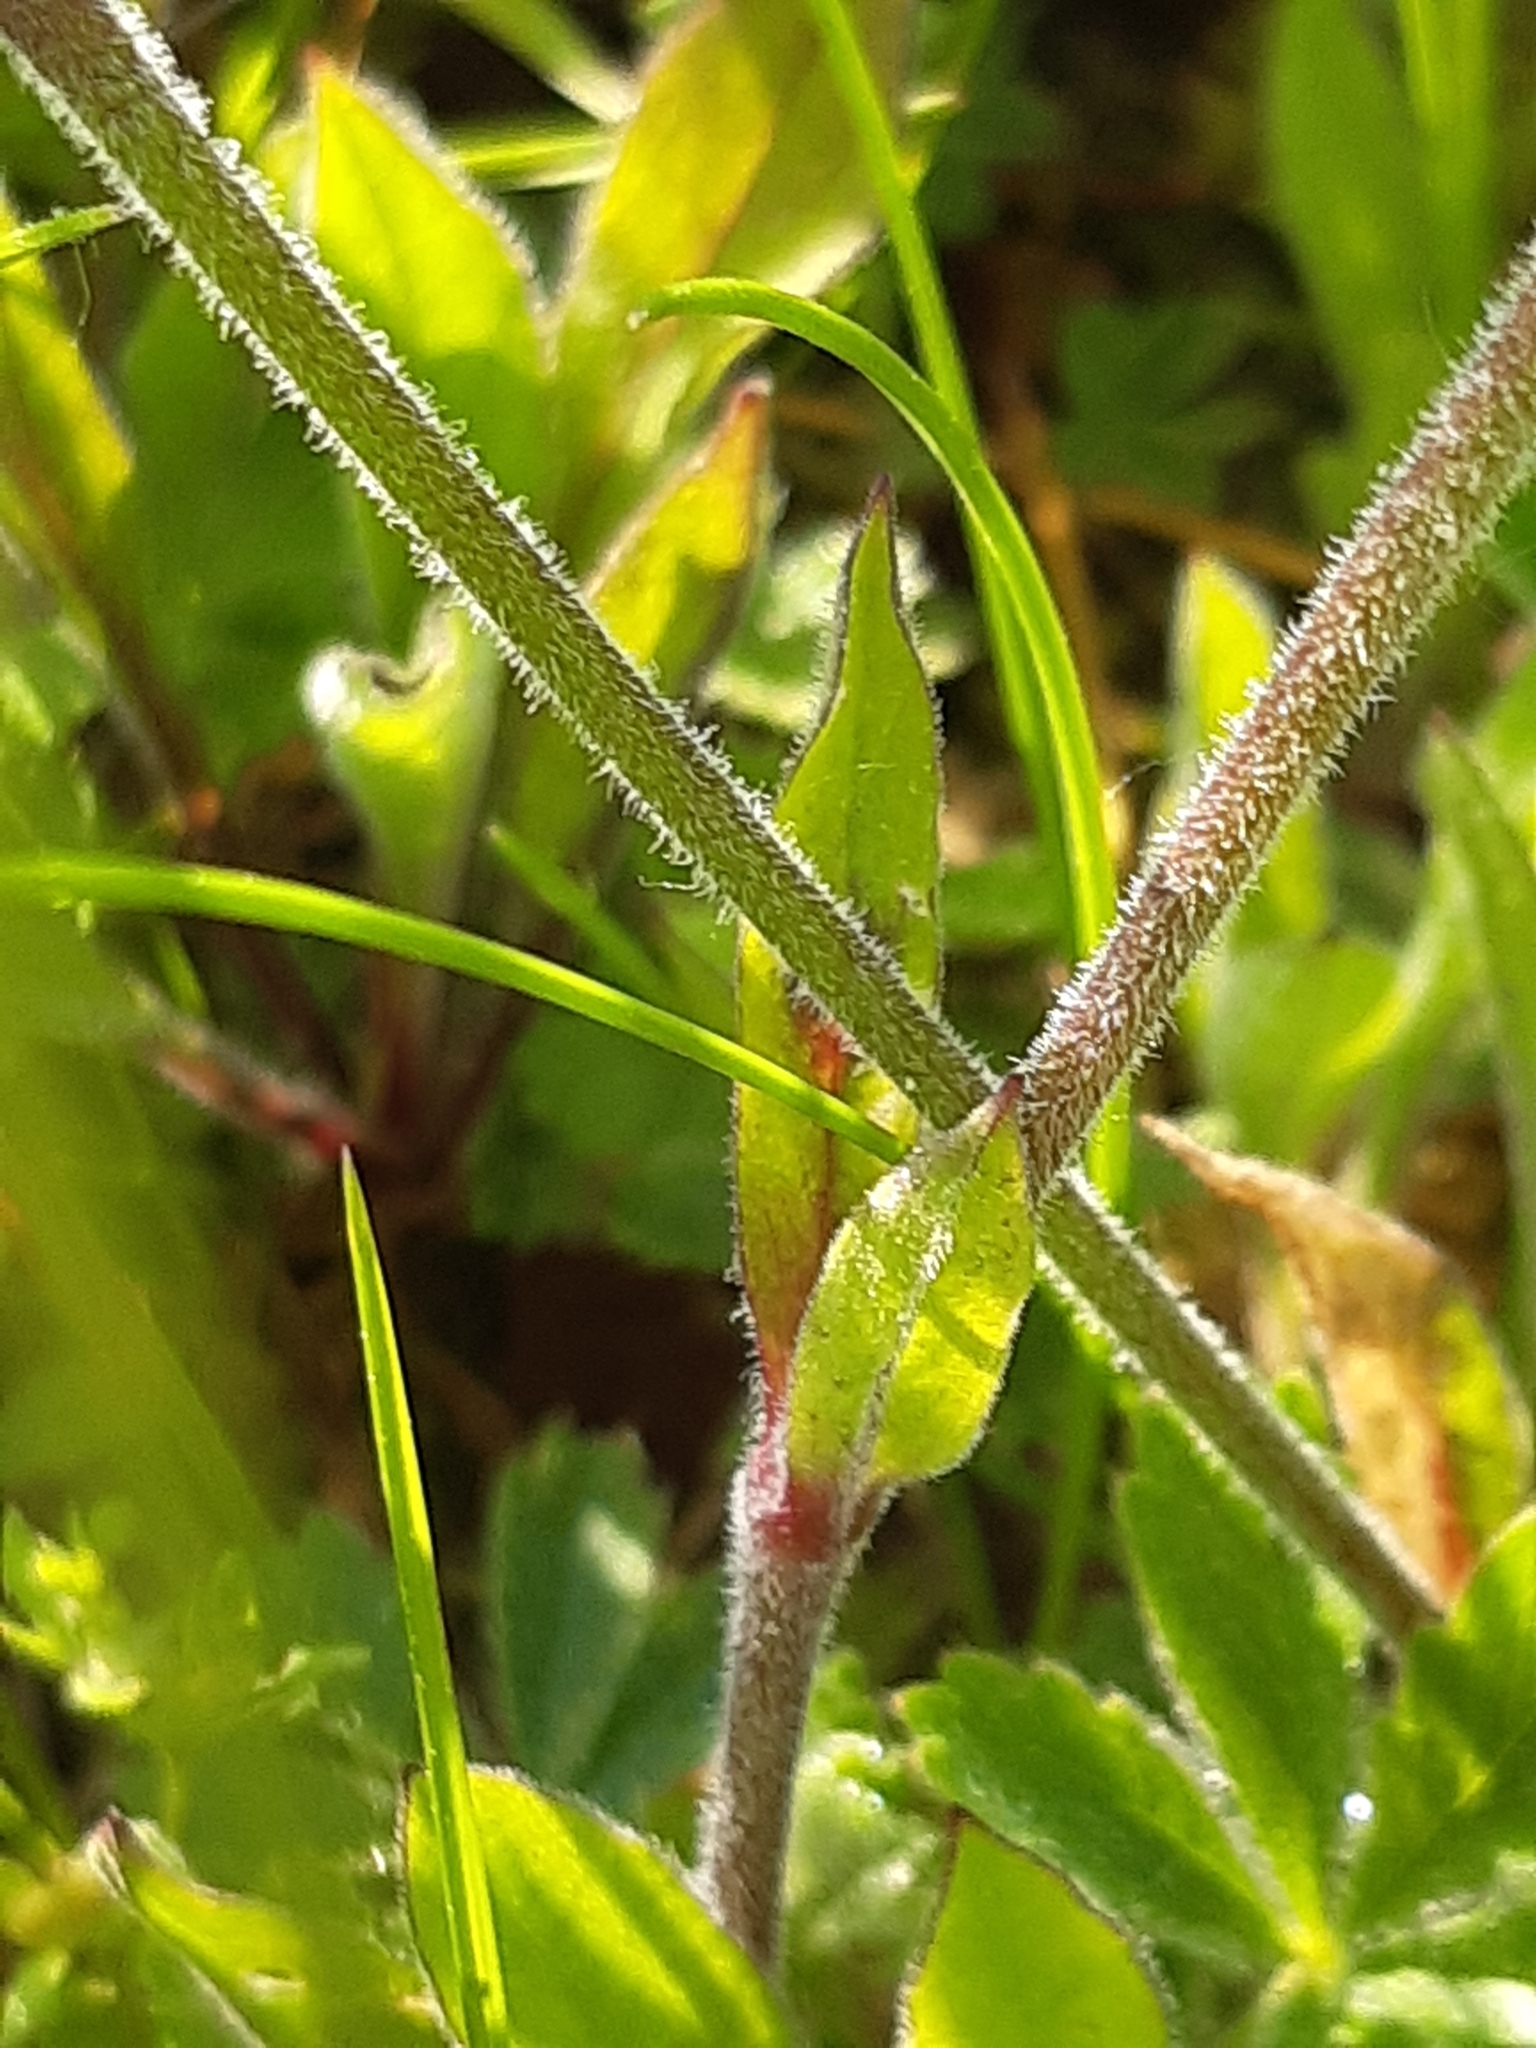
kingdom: Plantae
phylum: Tracheophyta
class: Magnoliopsida
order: Caryophyllales
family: Caryophyllaceae
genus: Silene
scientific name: Silene nutans
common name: Nottingham catchfly
